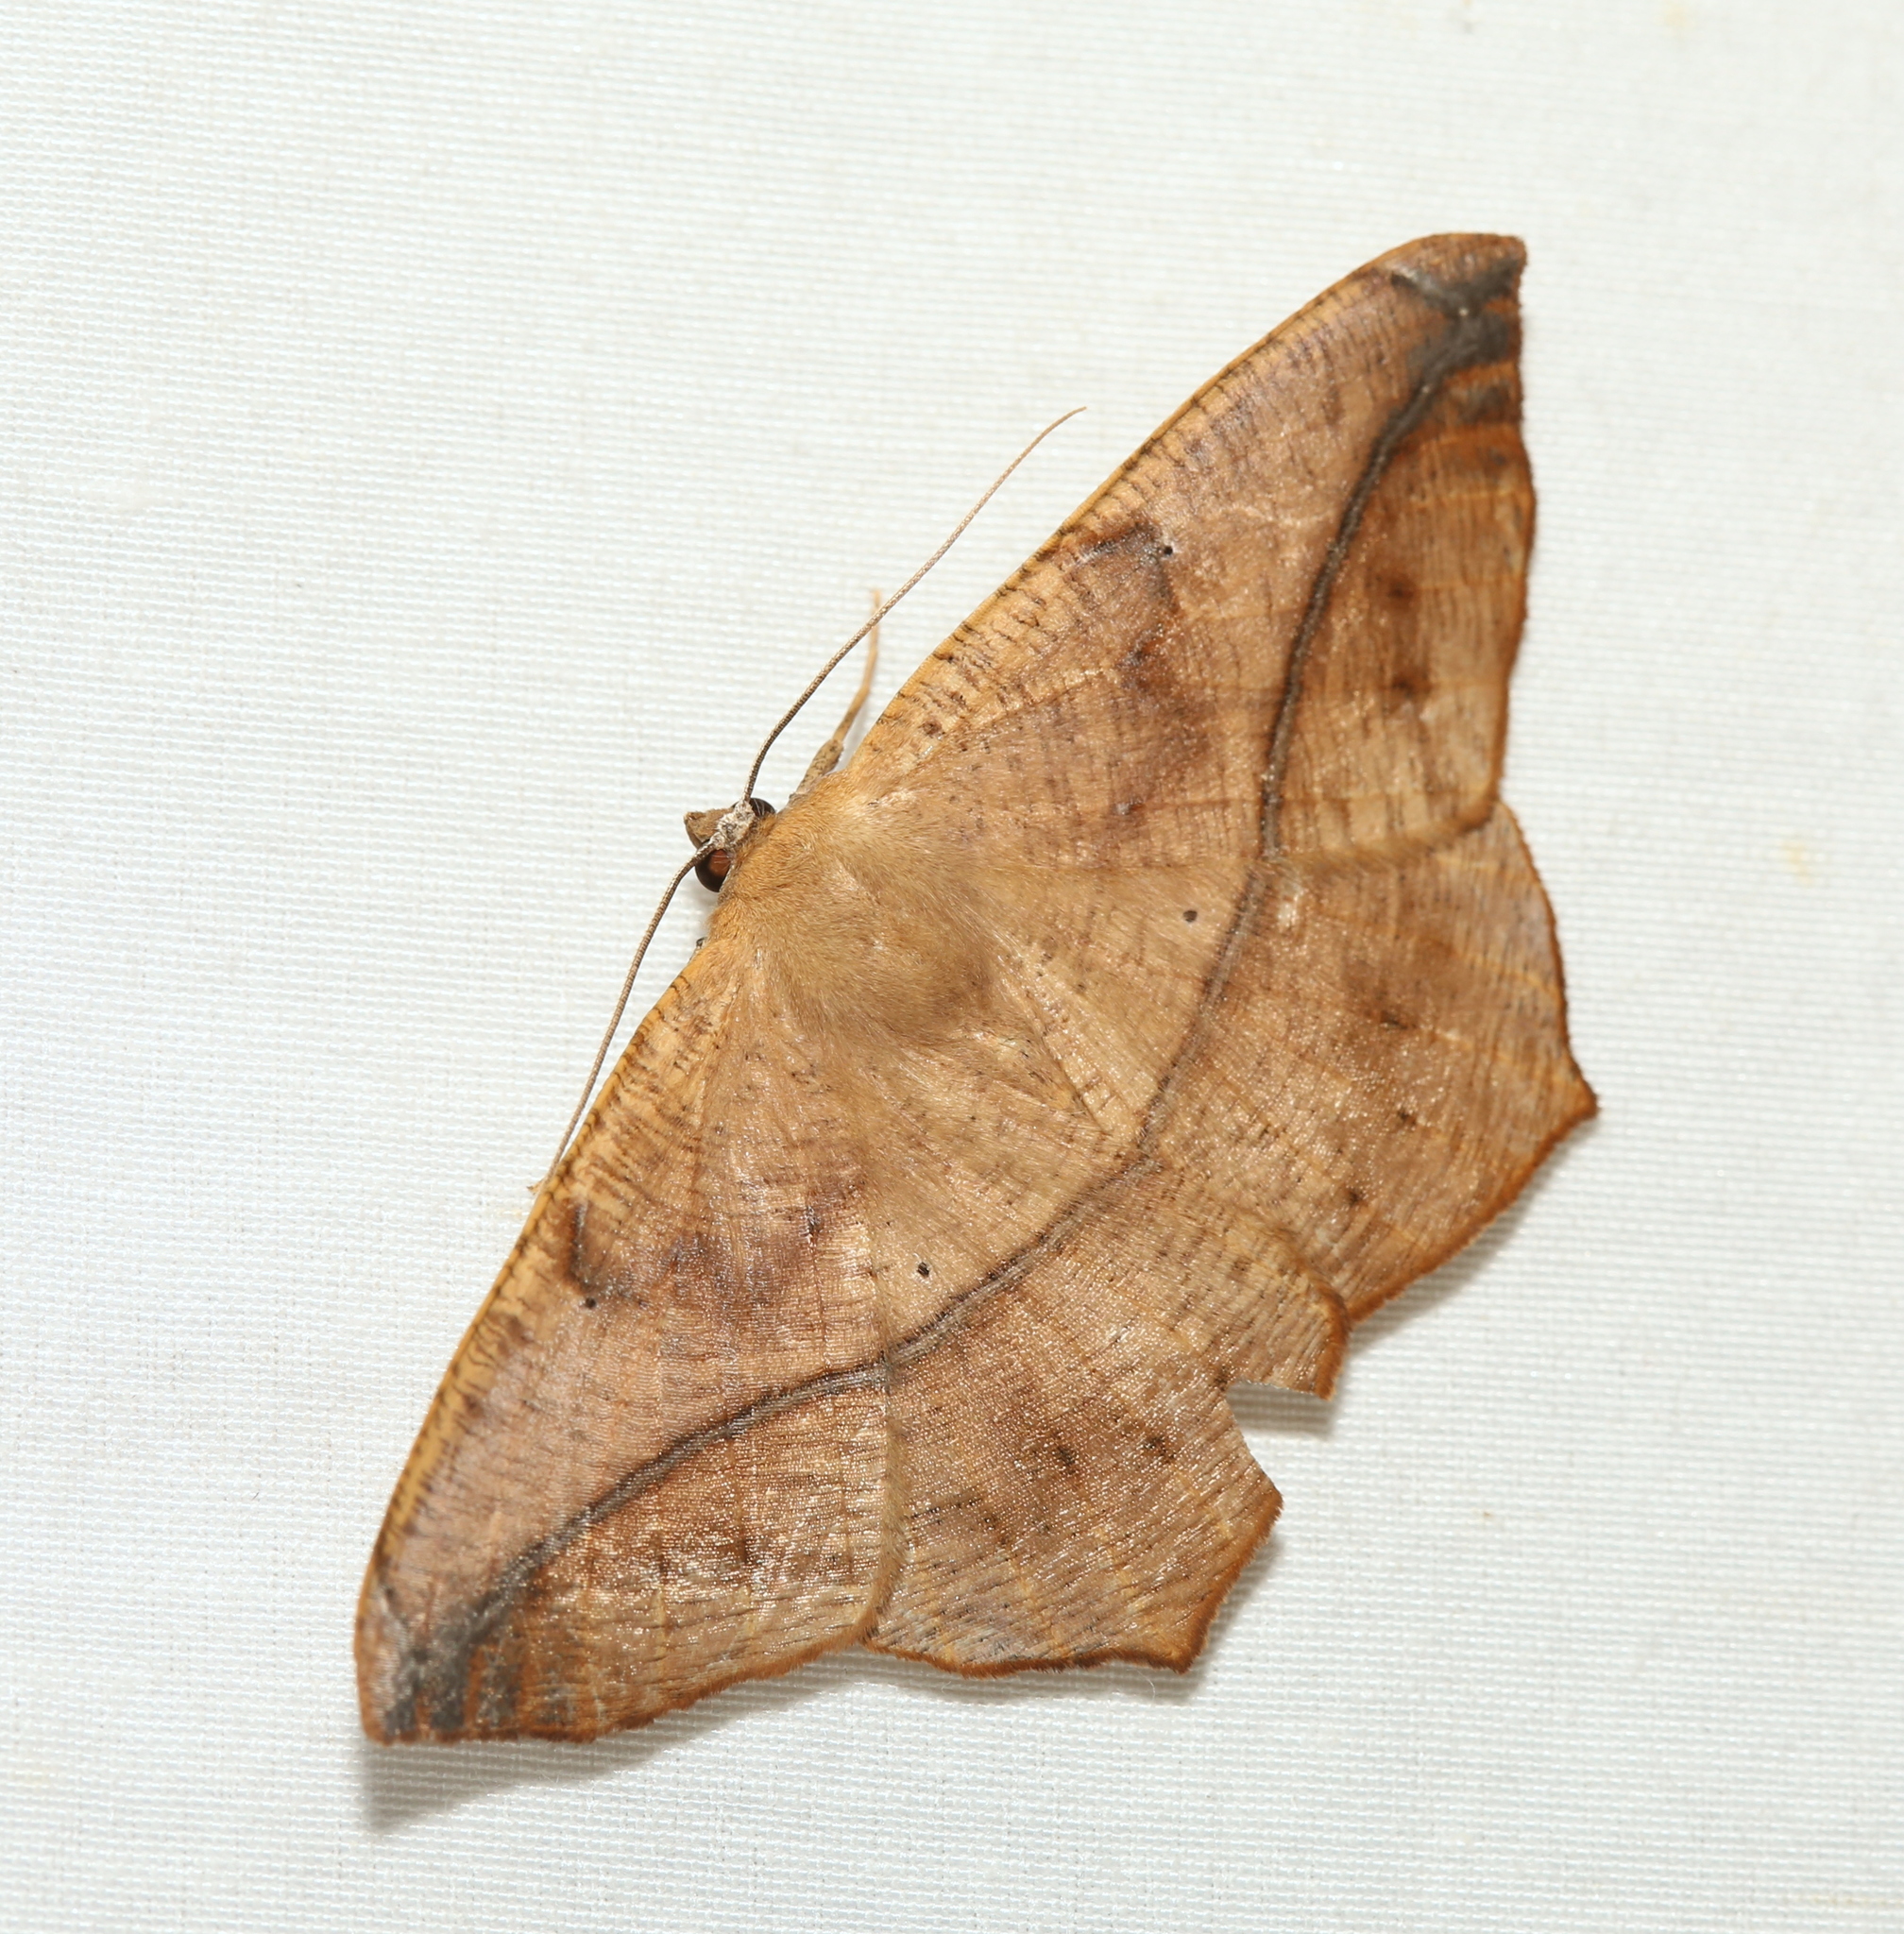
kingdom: Animalia
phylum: Arthropoda
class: Insecta
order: Lepidoptera
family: Geometridae
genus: Prochoerodes
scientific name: Prochoerodes lineola
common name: Large maple spanworm
